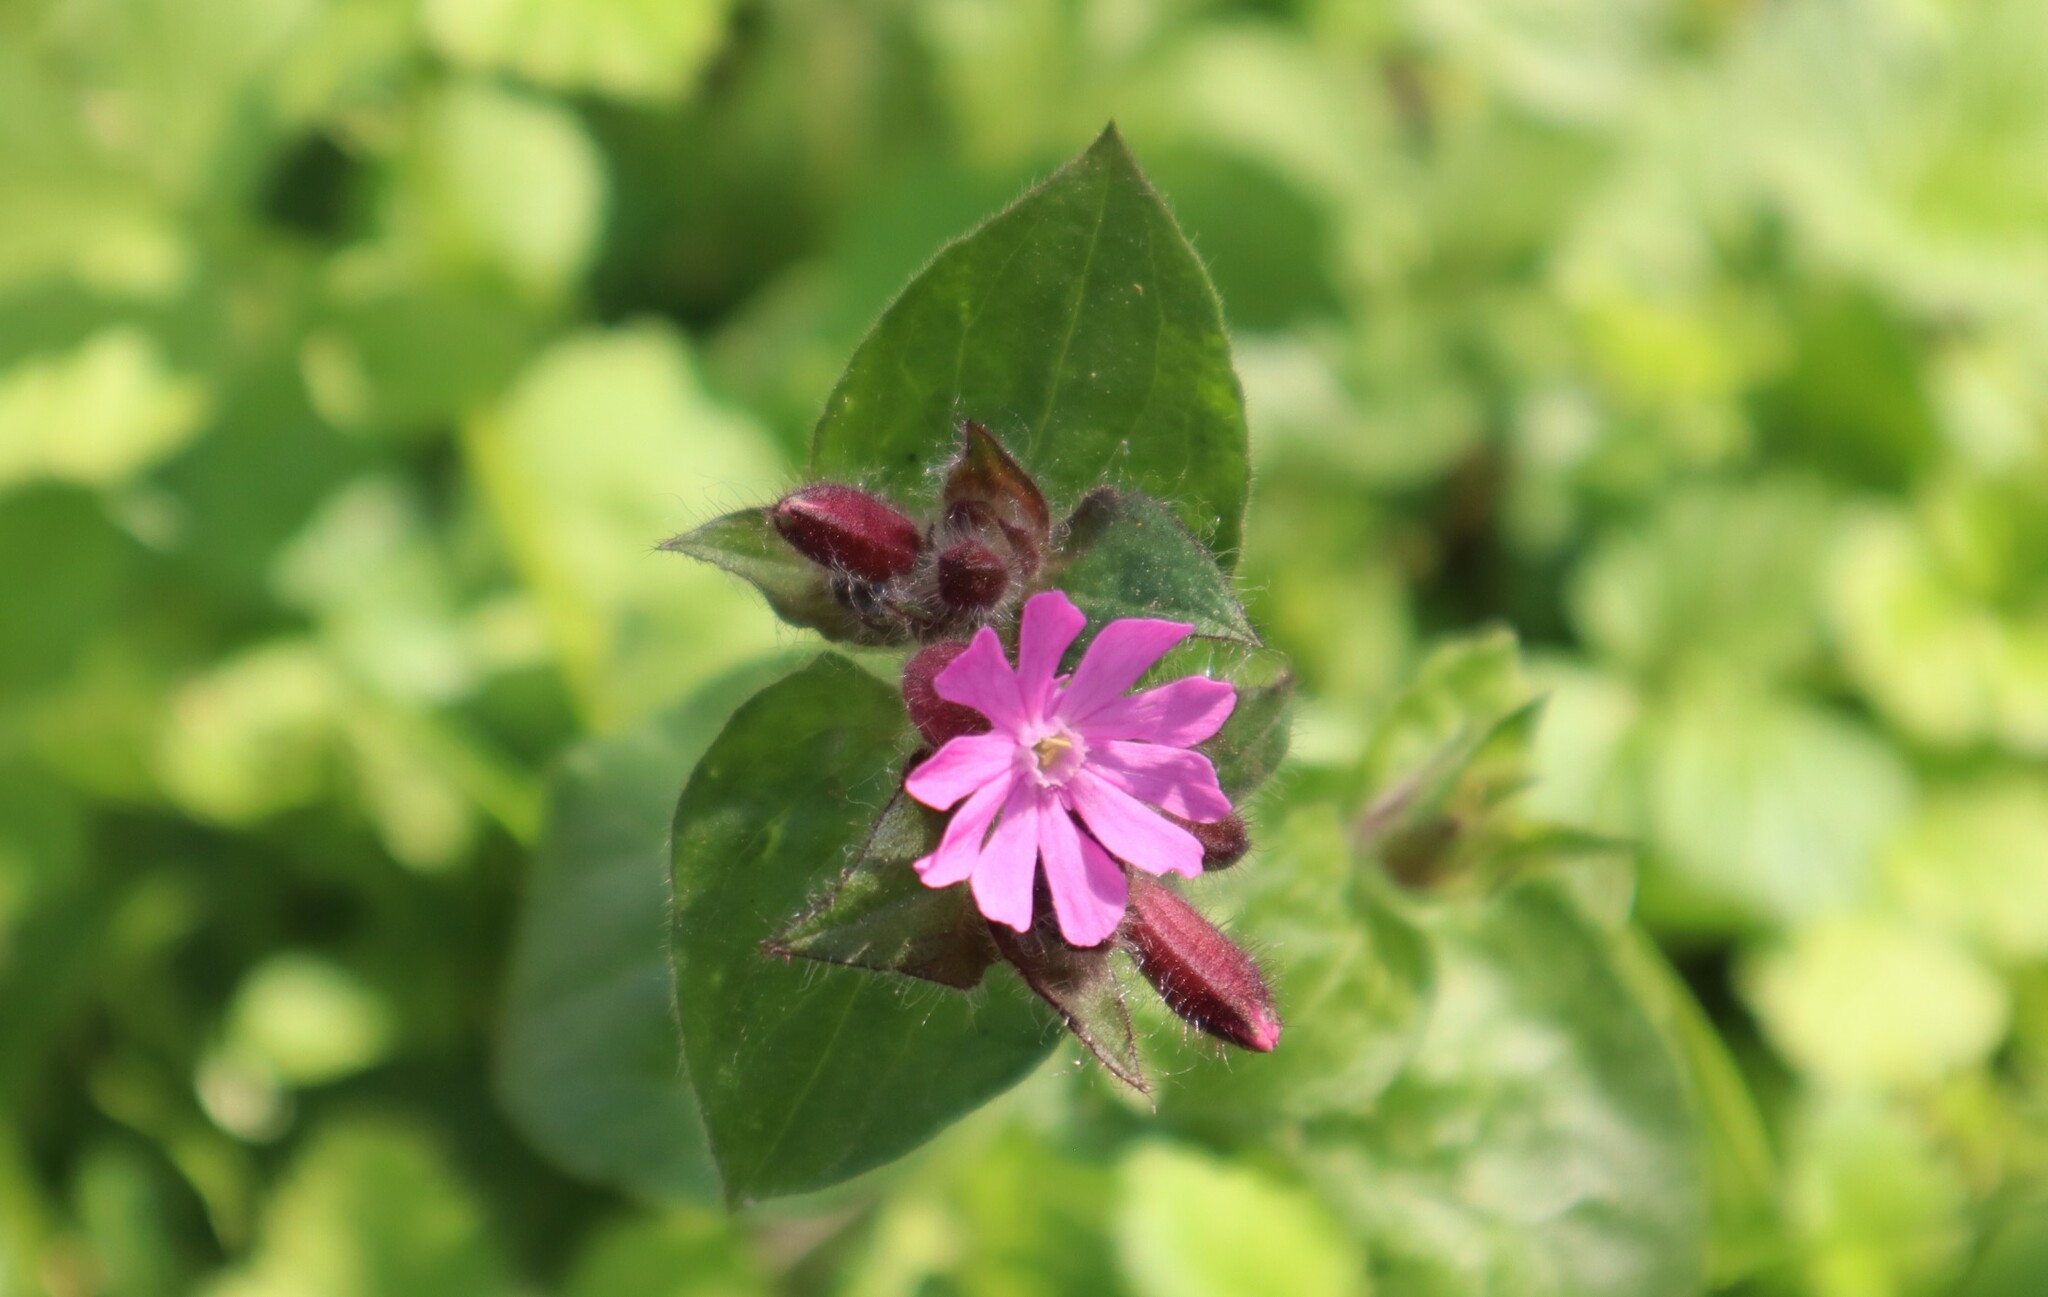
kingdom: Plantae
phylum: Tracheophyta
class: Magnoliopsida
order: Caryophyllales
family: Caryophyllaceae
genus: Silene
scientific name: Silene dioica
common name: Red campion
